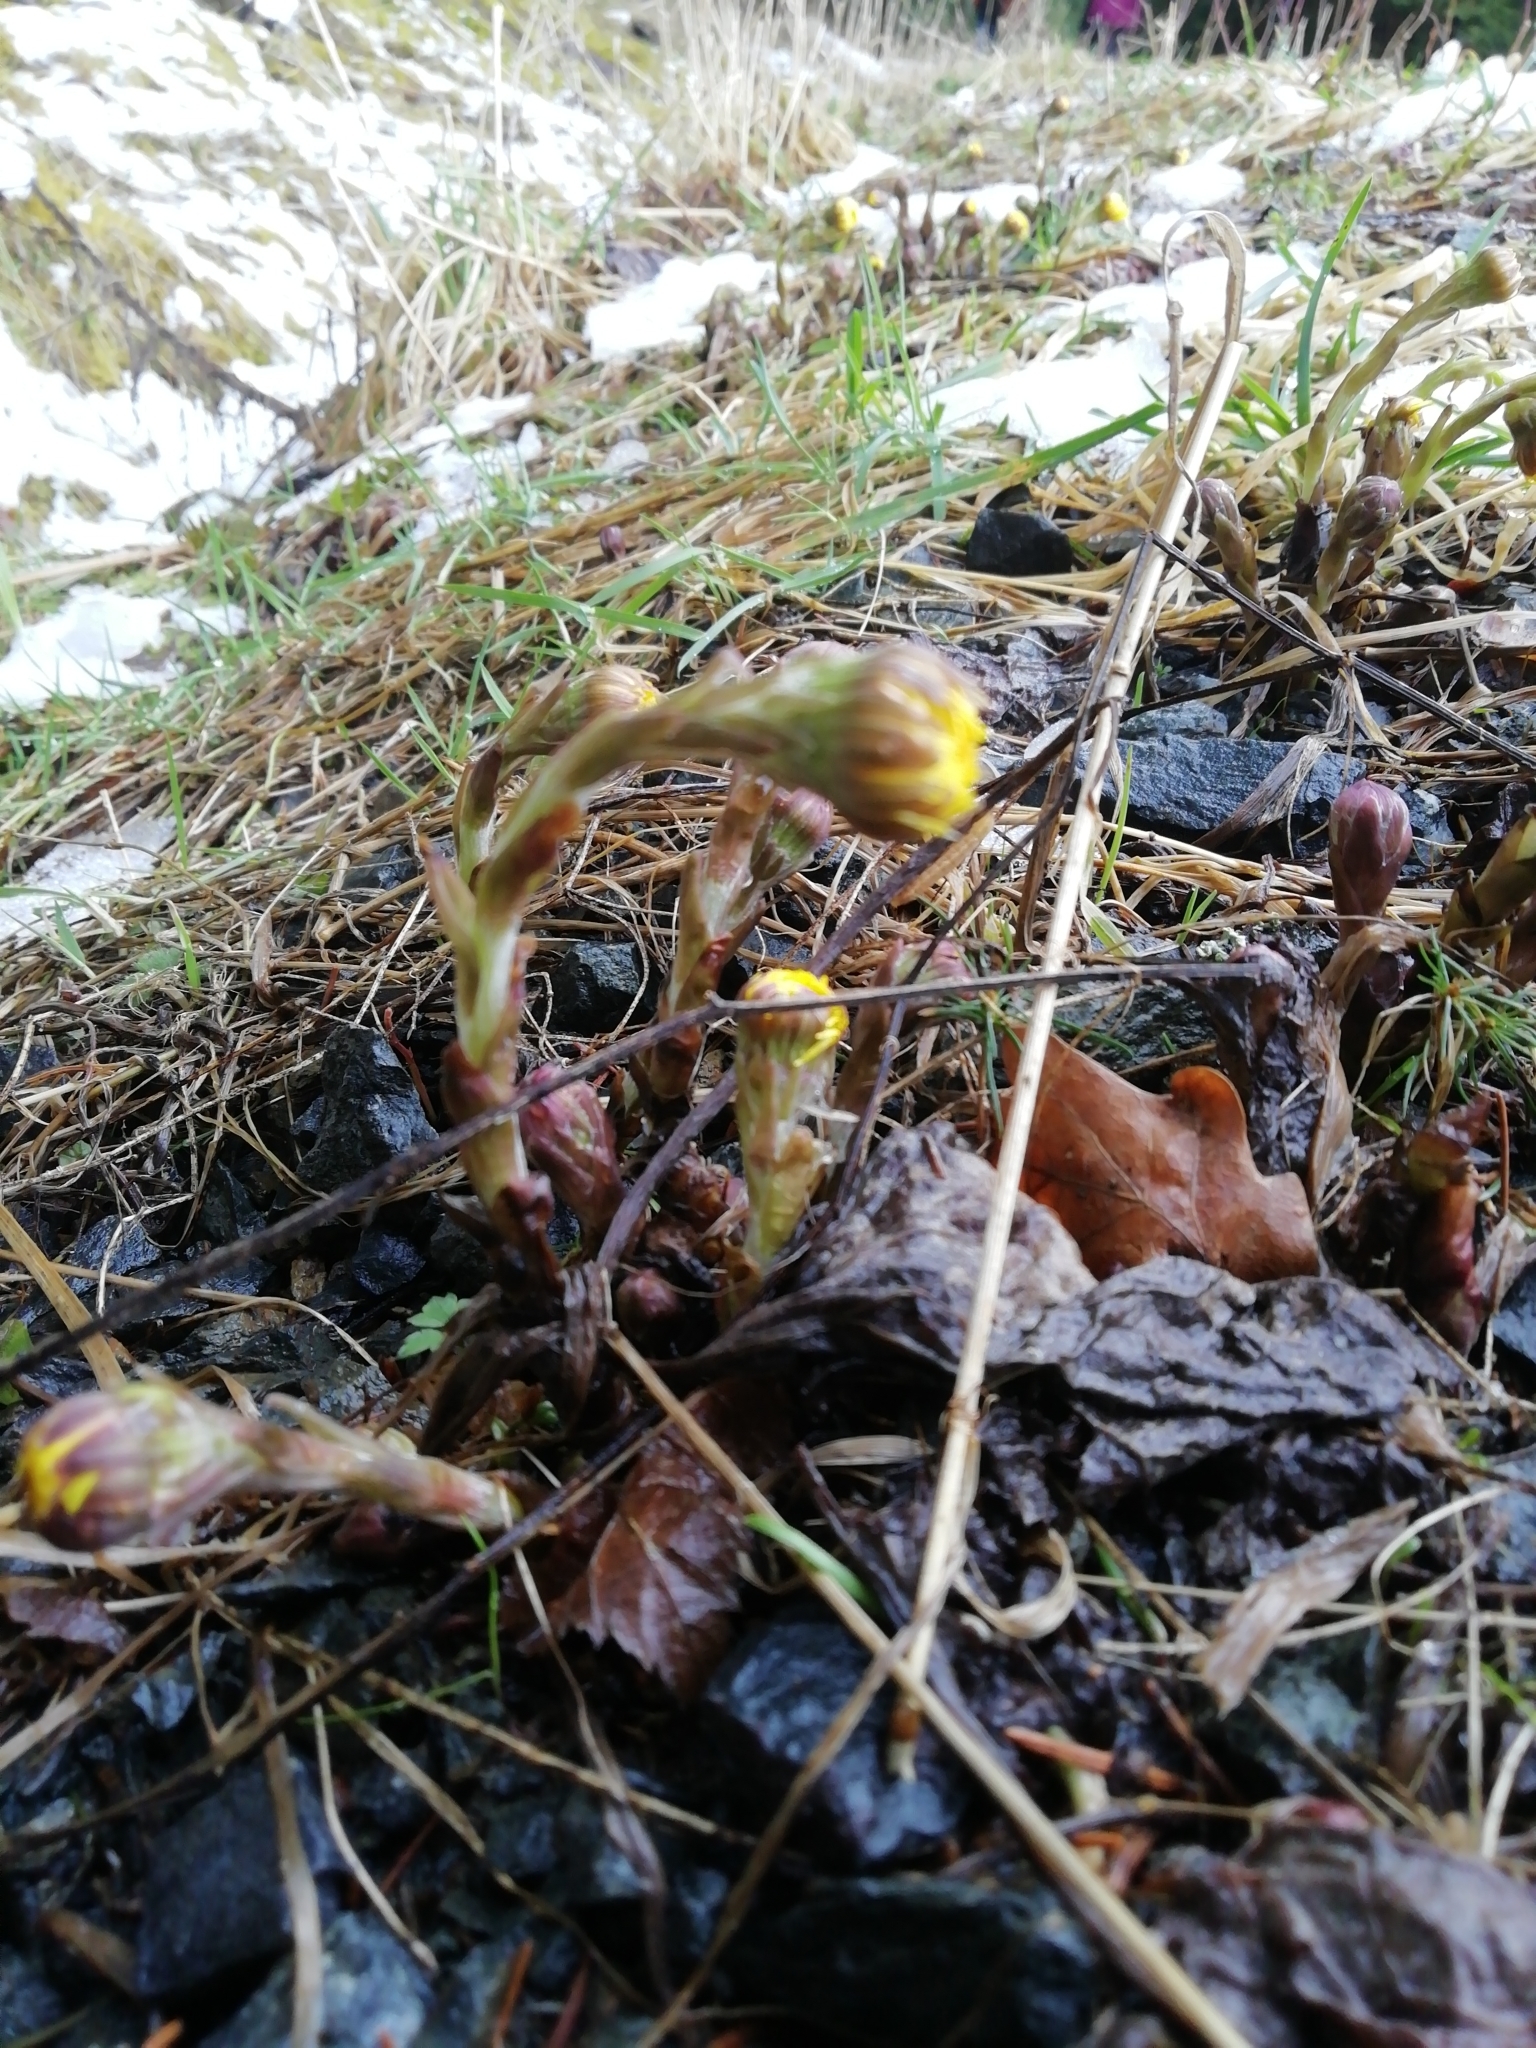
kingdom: Plantae
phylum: Tracheophyta
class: Magnoliopsida
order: Asterales
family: Asteraceae
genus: Tussilago
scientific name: Tussilago farfara
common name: Coltsfoot
